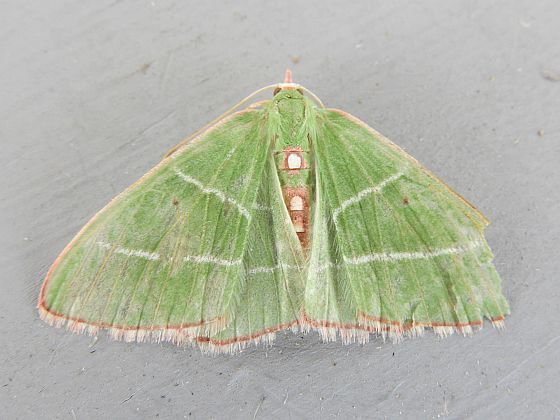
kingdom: Animalia
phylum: Arthropoda
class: Insecta
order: Lepidoptera
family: Geometridae
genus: Nemoria
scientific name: Nemoria obliqua
